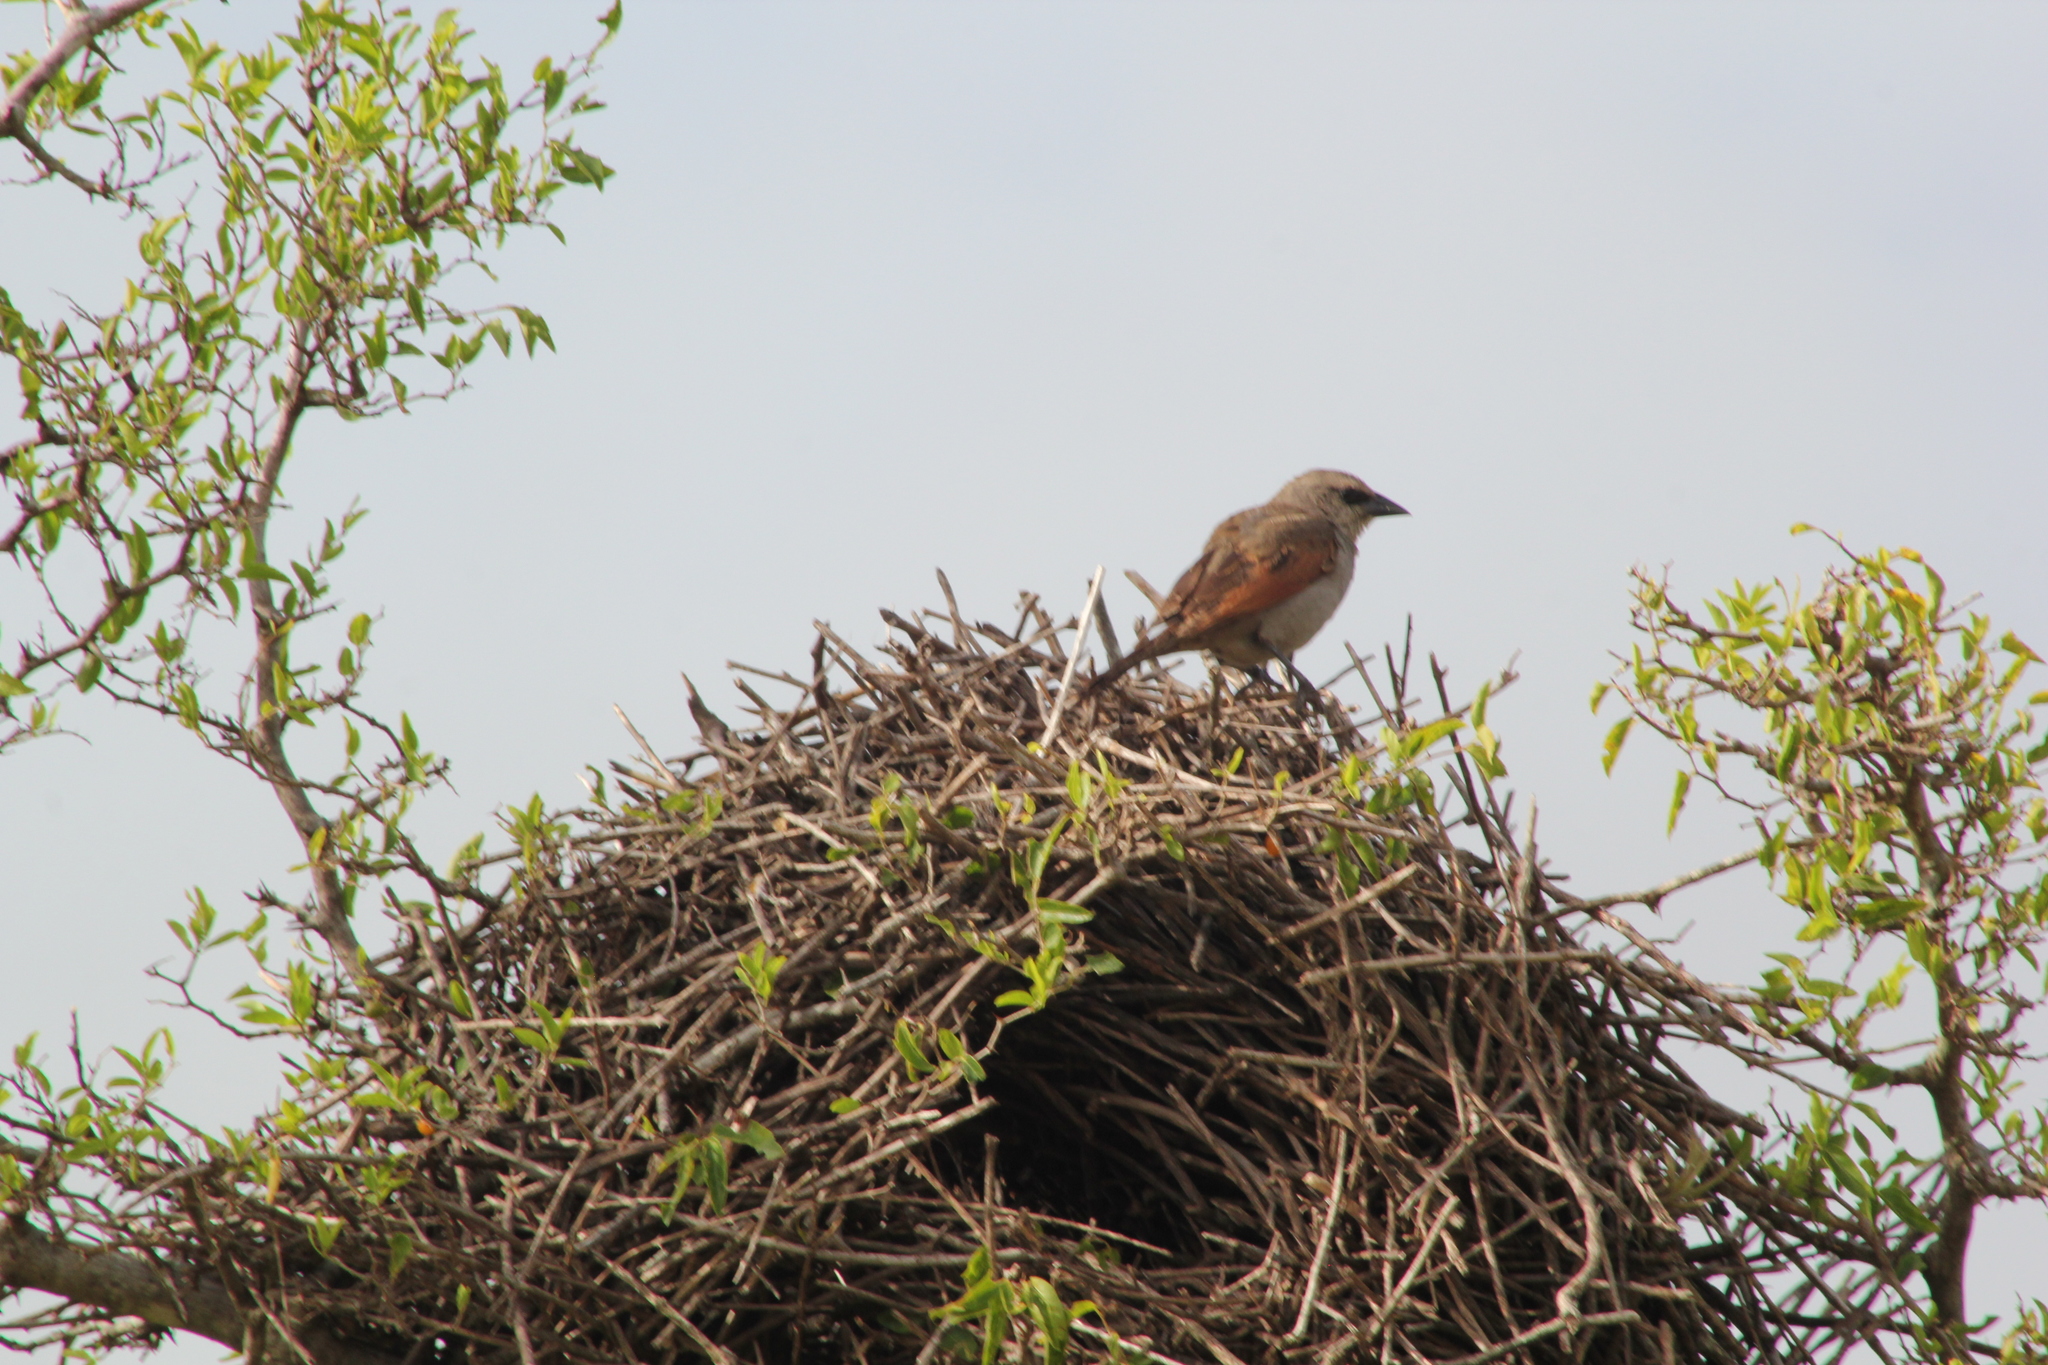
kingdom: Animalia
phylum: Chordata
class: Aves
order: Passeriformes
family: Icteridae
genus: Agelaioides
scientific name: Agelaioides badius
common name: Baywing
